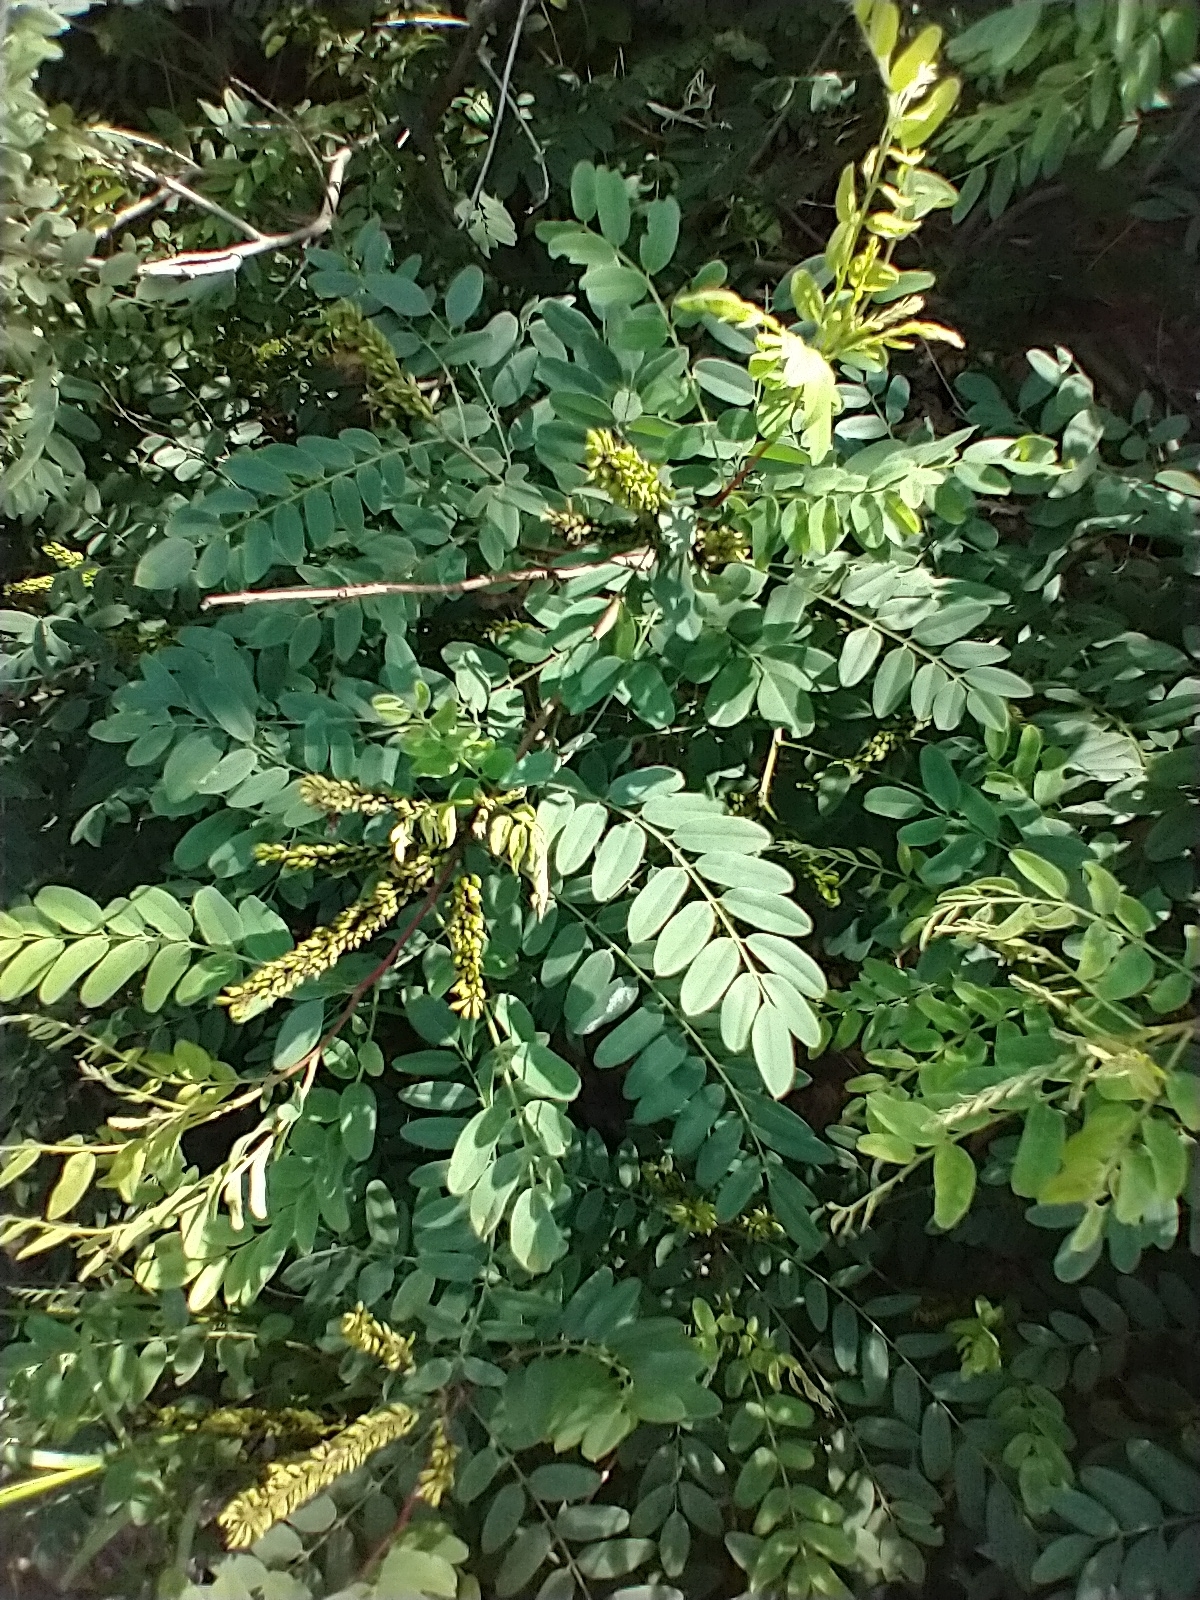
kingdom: Plantae
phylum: Tracheophyta
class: Magnoliopsida
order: Fabales
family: Fabaceae
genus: Amorpha
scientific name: Amorpha fruticosa
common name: False indigo
